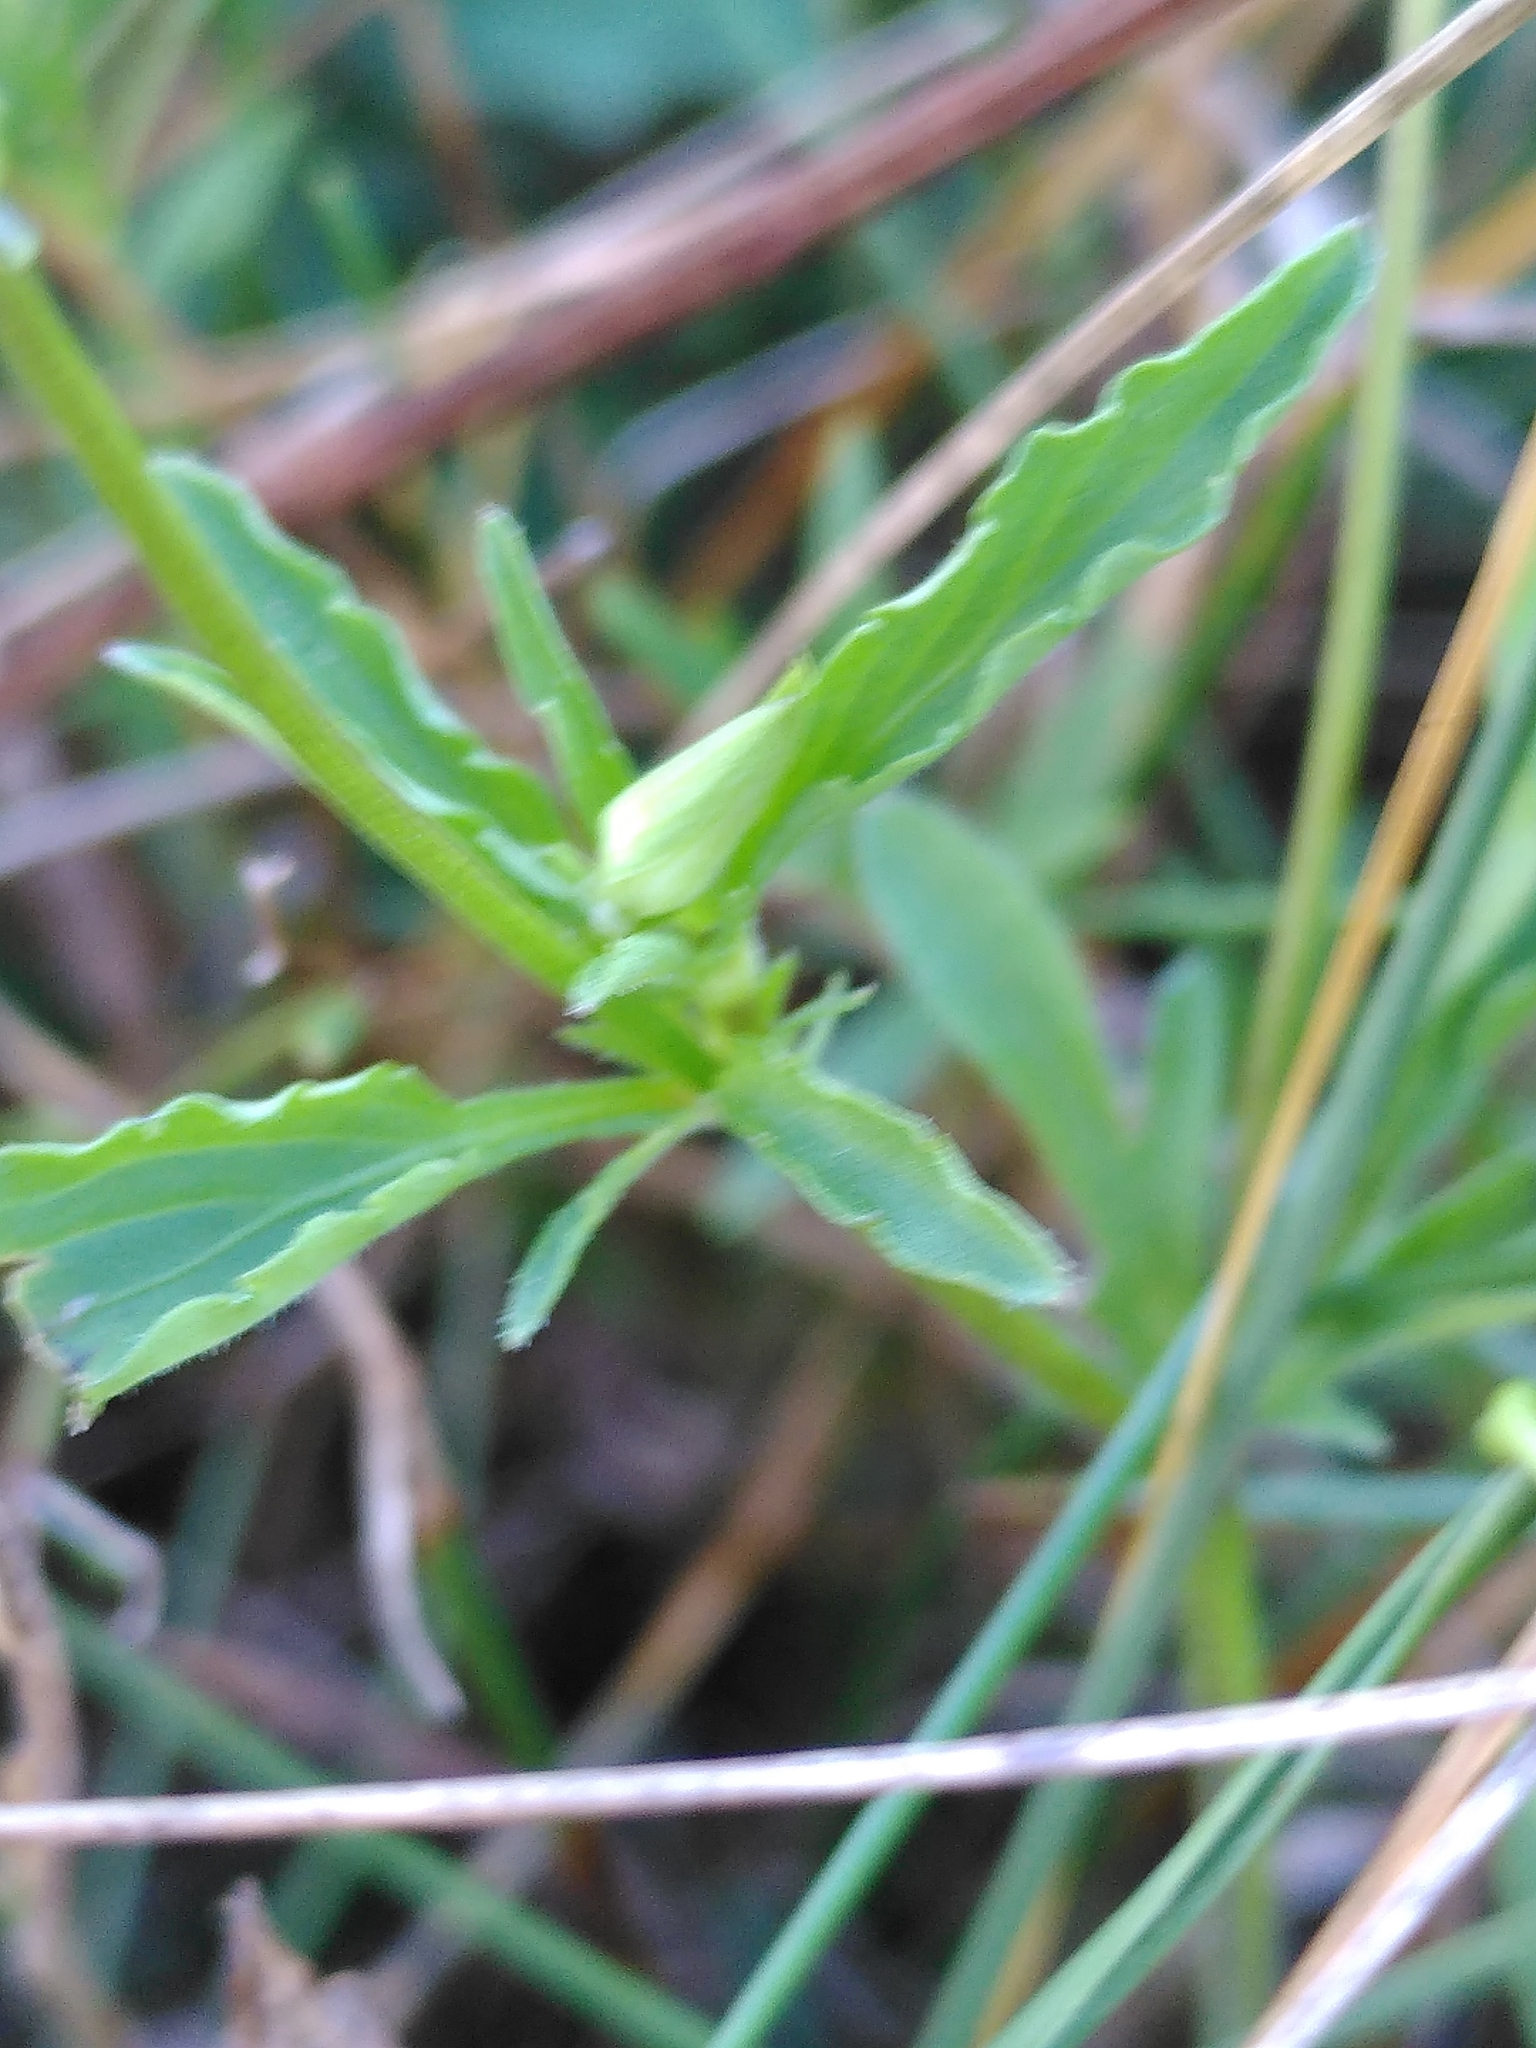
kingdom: Plantae
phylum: Tracheophyta
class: Magnoliopsida
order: Malpighiales
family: Violaceae
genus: Viola
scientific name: Viola arvensis
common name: Field pansy
